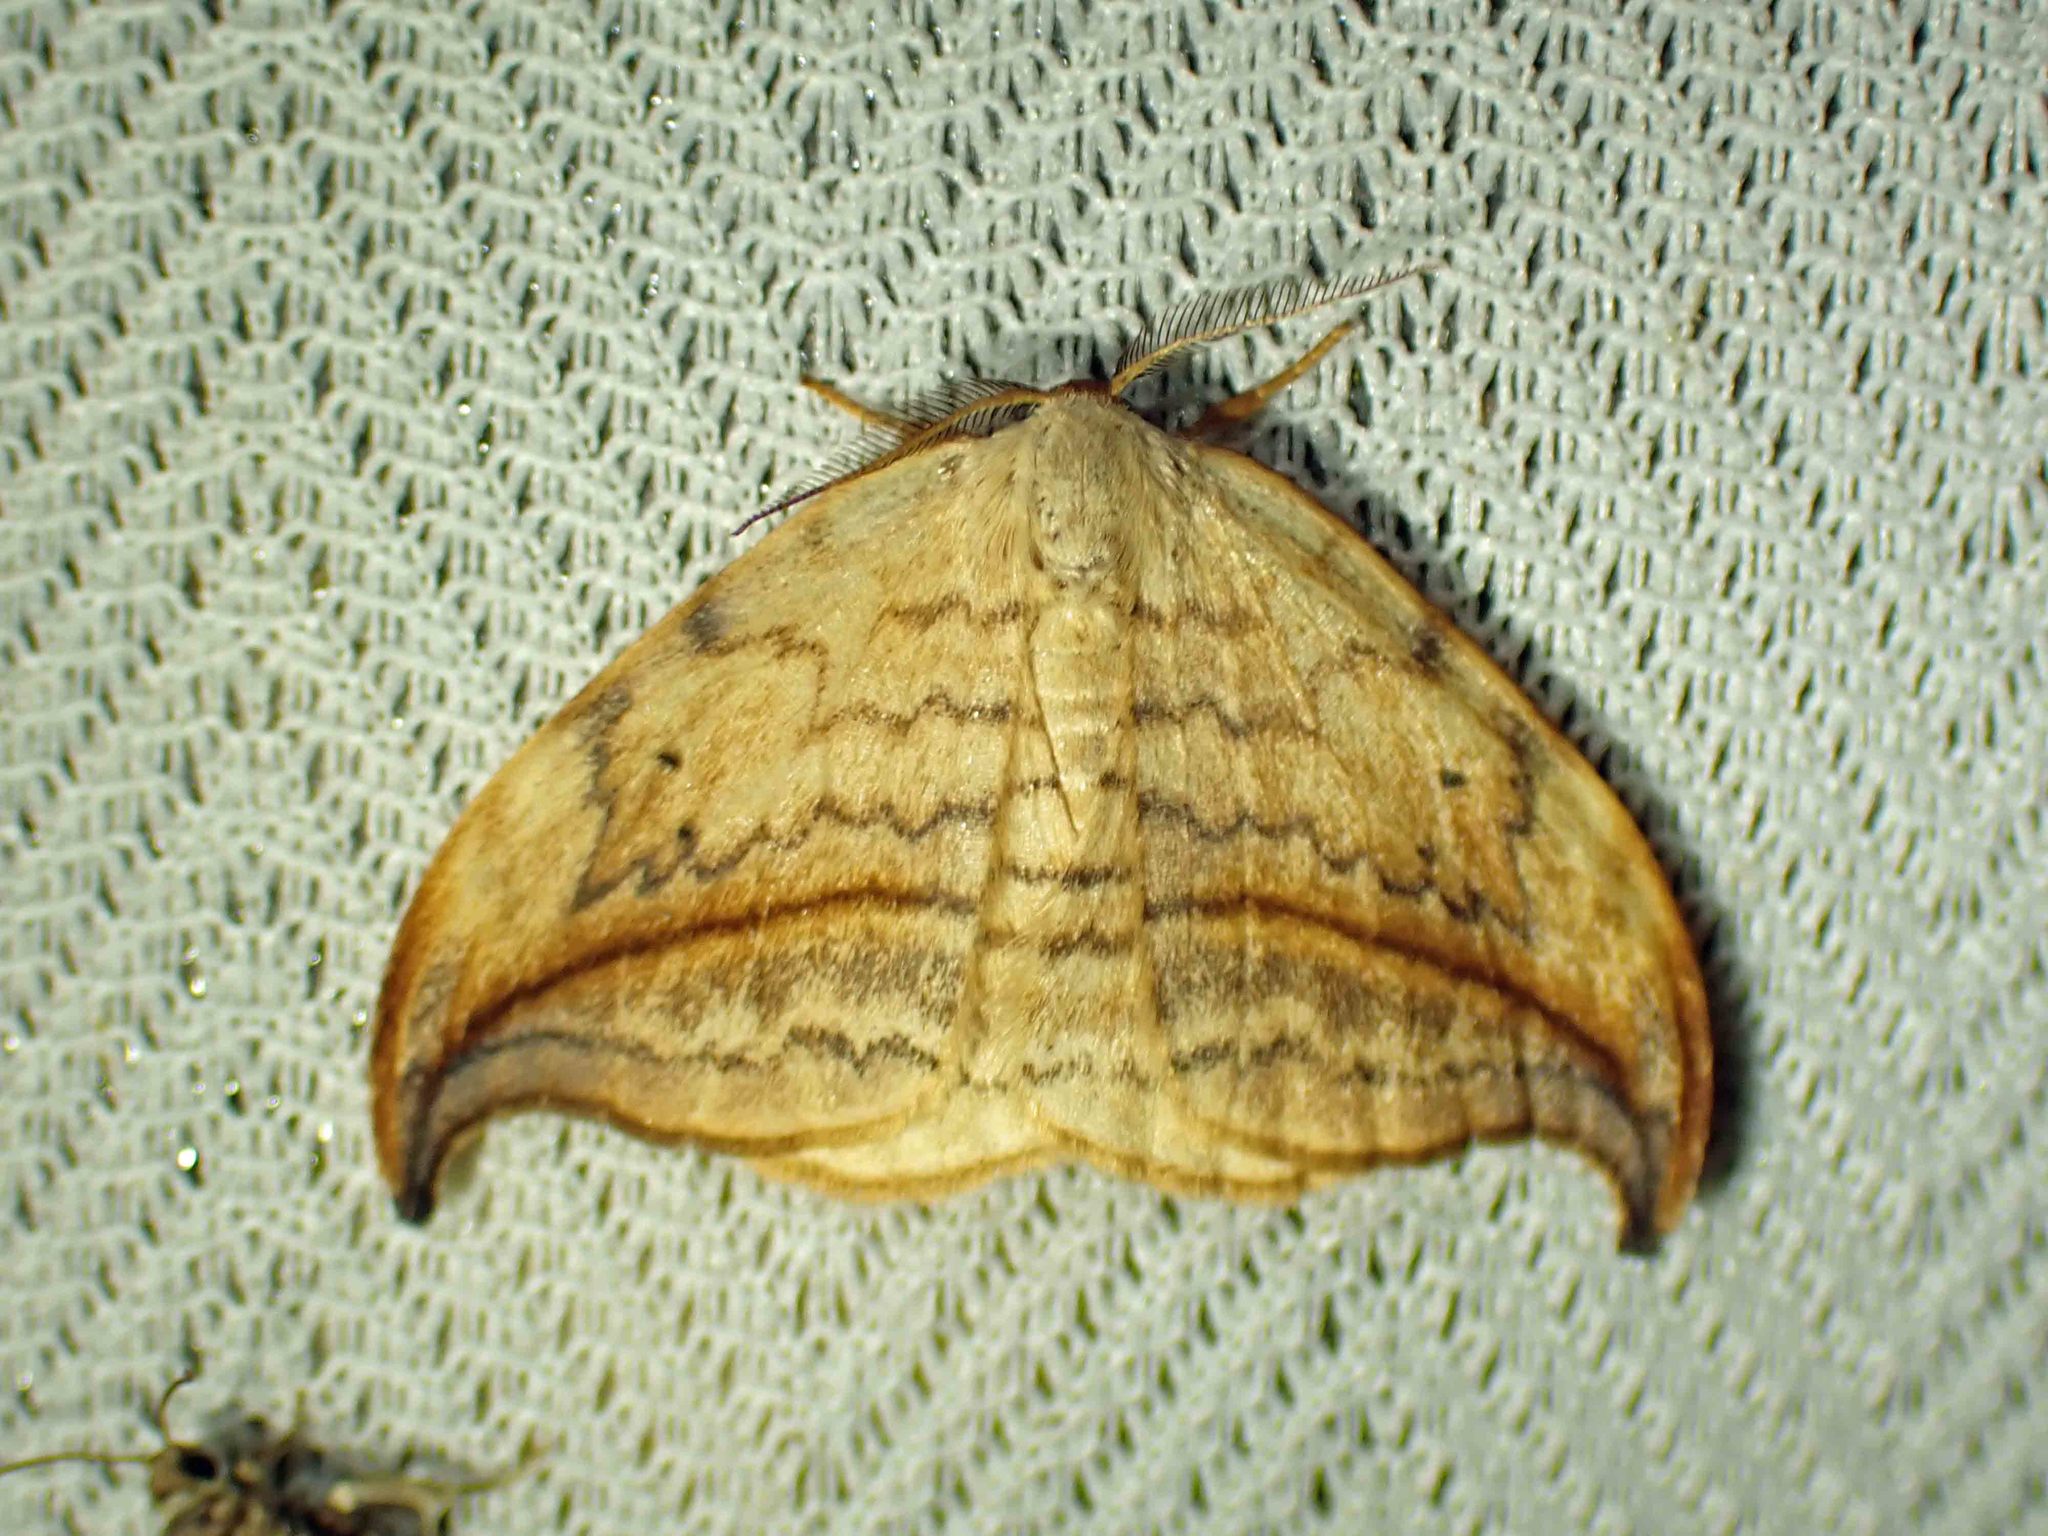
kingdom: Animalia
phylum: Arthropoda
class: Insecta
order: Lepidoptera
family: Drepanidae
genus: Drepana
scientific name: Drepana arcuata
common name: Arched hooktip moth
